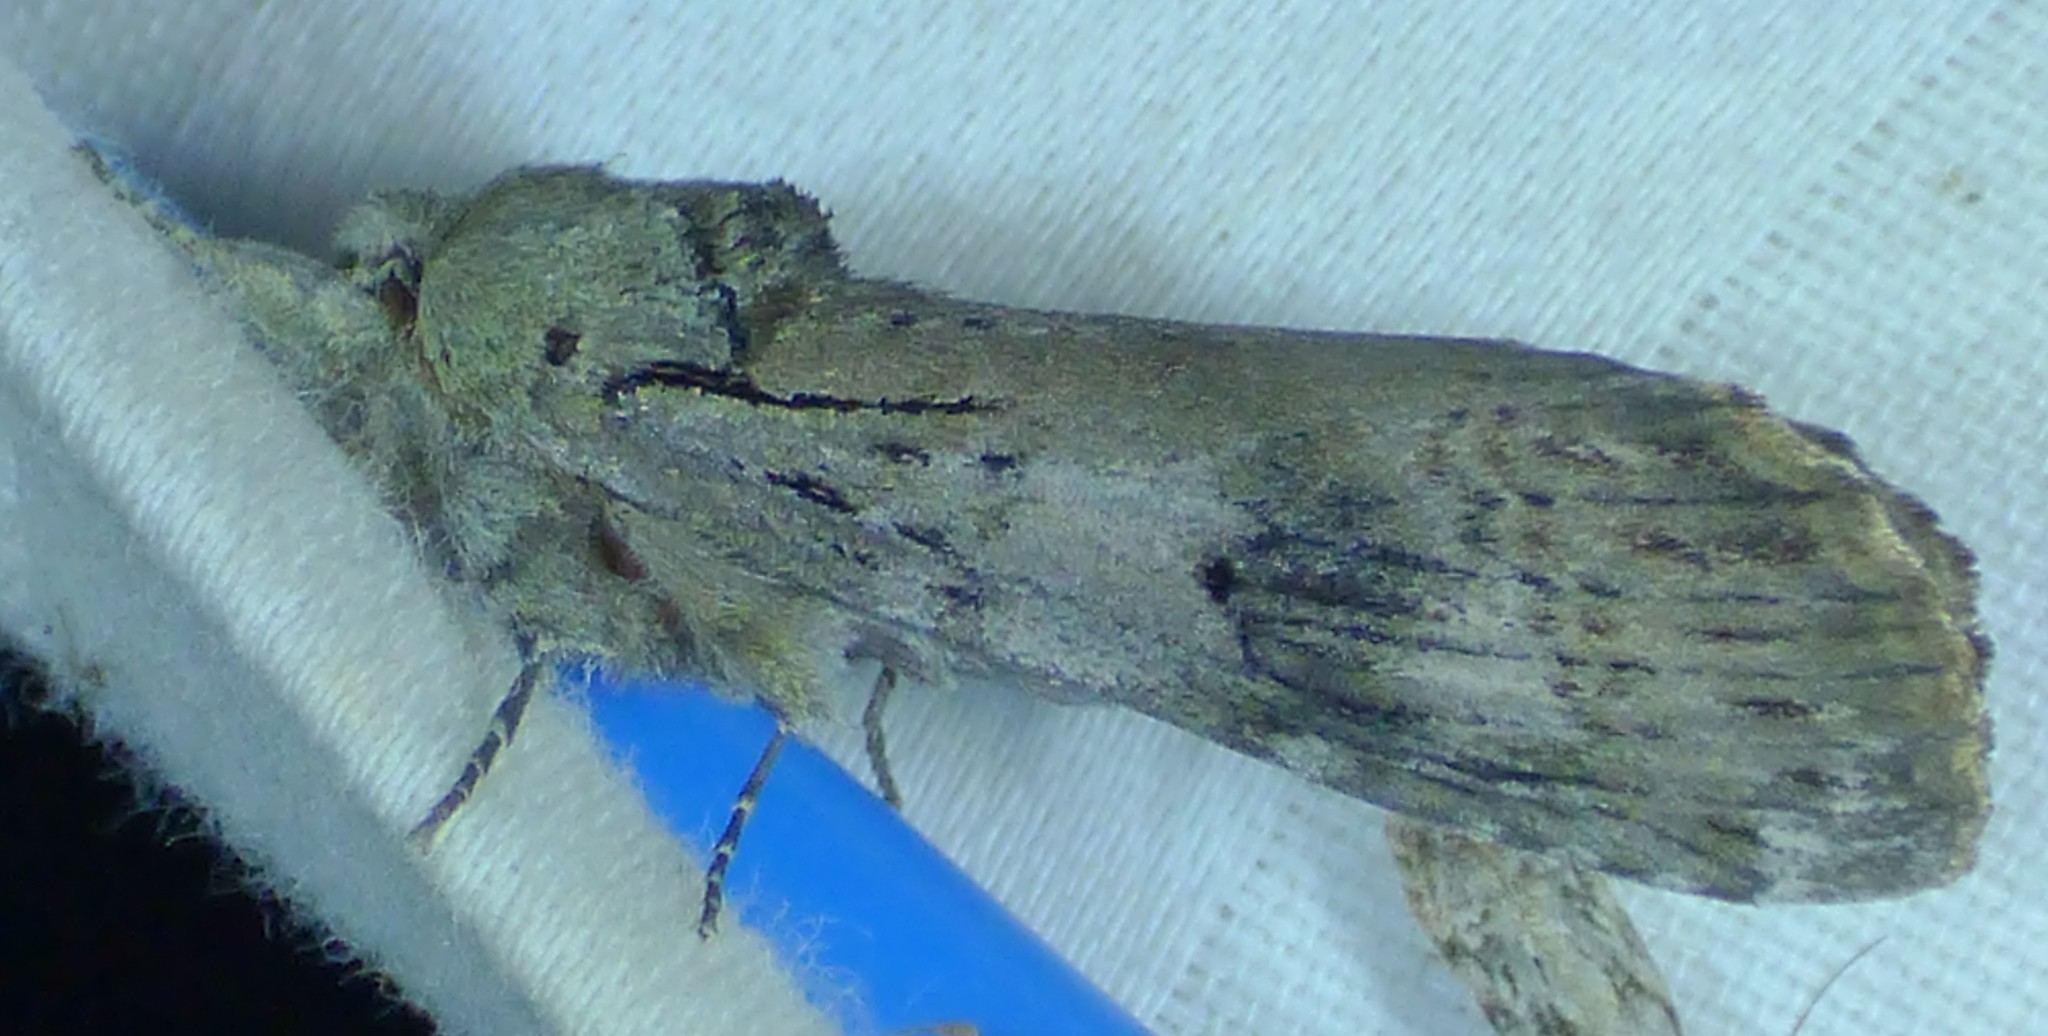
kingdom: Animalia
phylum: Arthropoda
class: Insecta
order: Lepidoptera
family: Notodontidae
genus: Schizura
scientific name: Schizura
